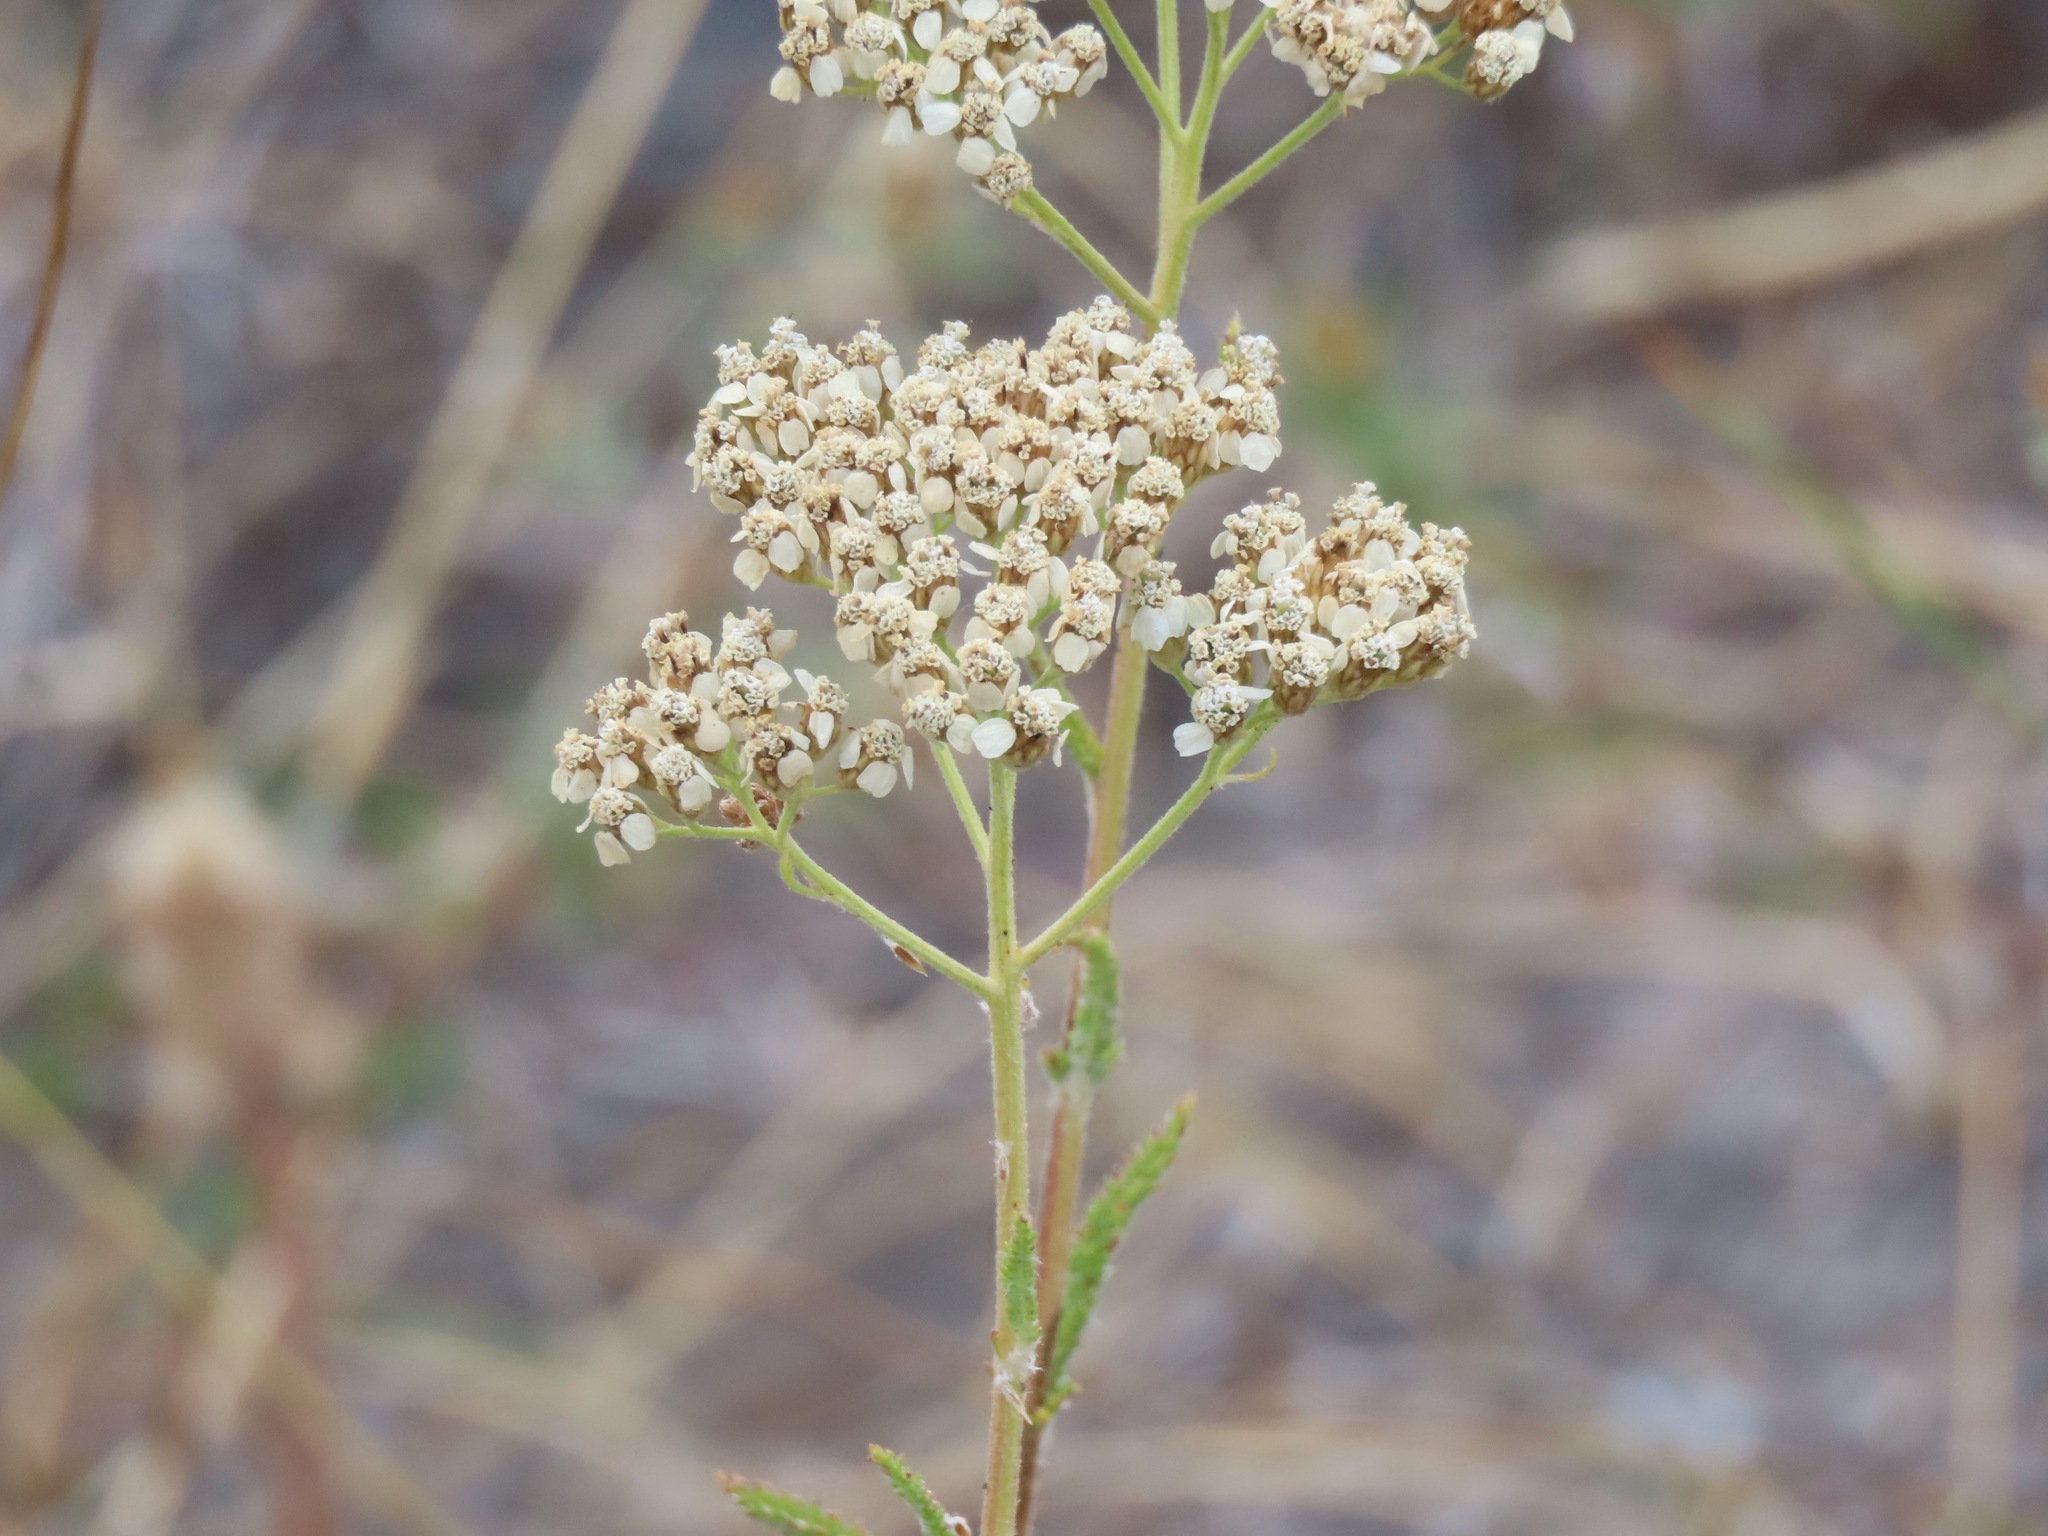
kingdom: Plantae
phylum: Tracheophyta
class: Magnoliopsida
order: Asterales
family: Asteraceae
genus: Achillea
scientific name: Achillea millefolium
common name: Yarrow
